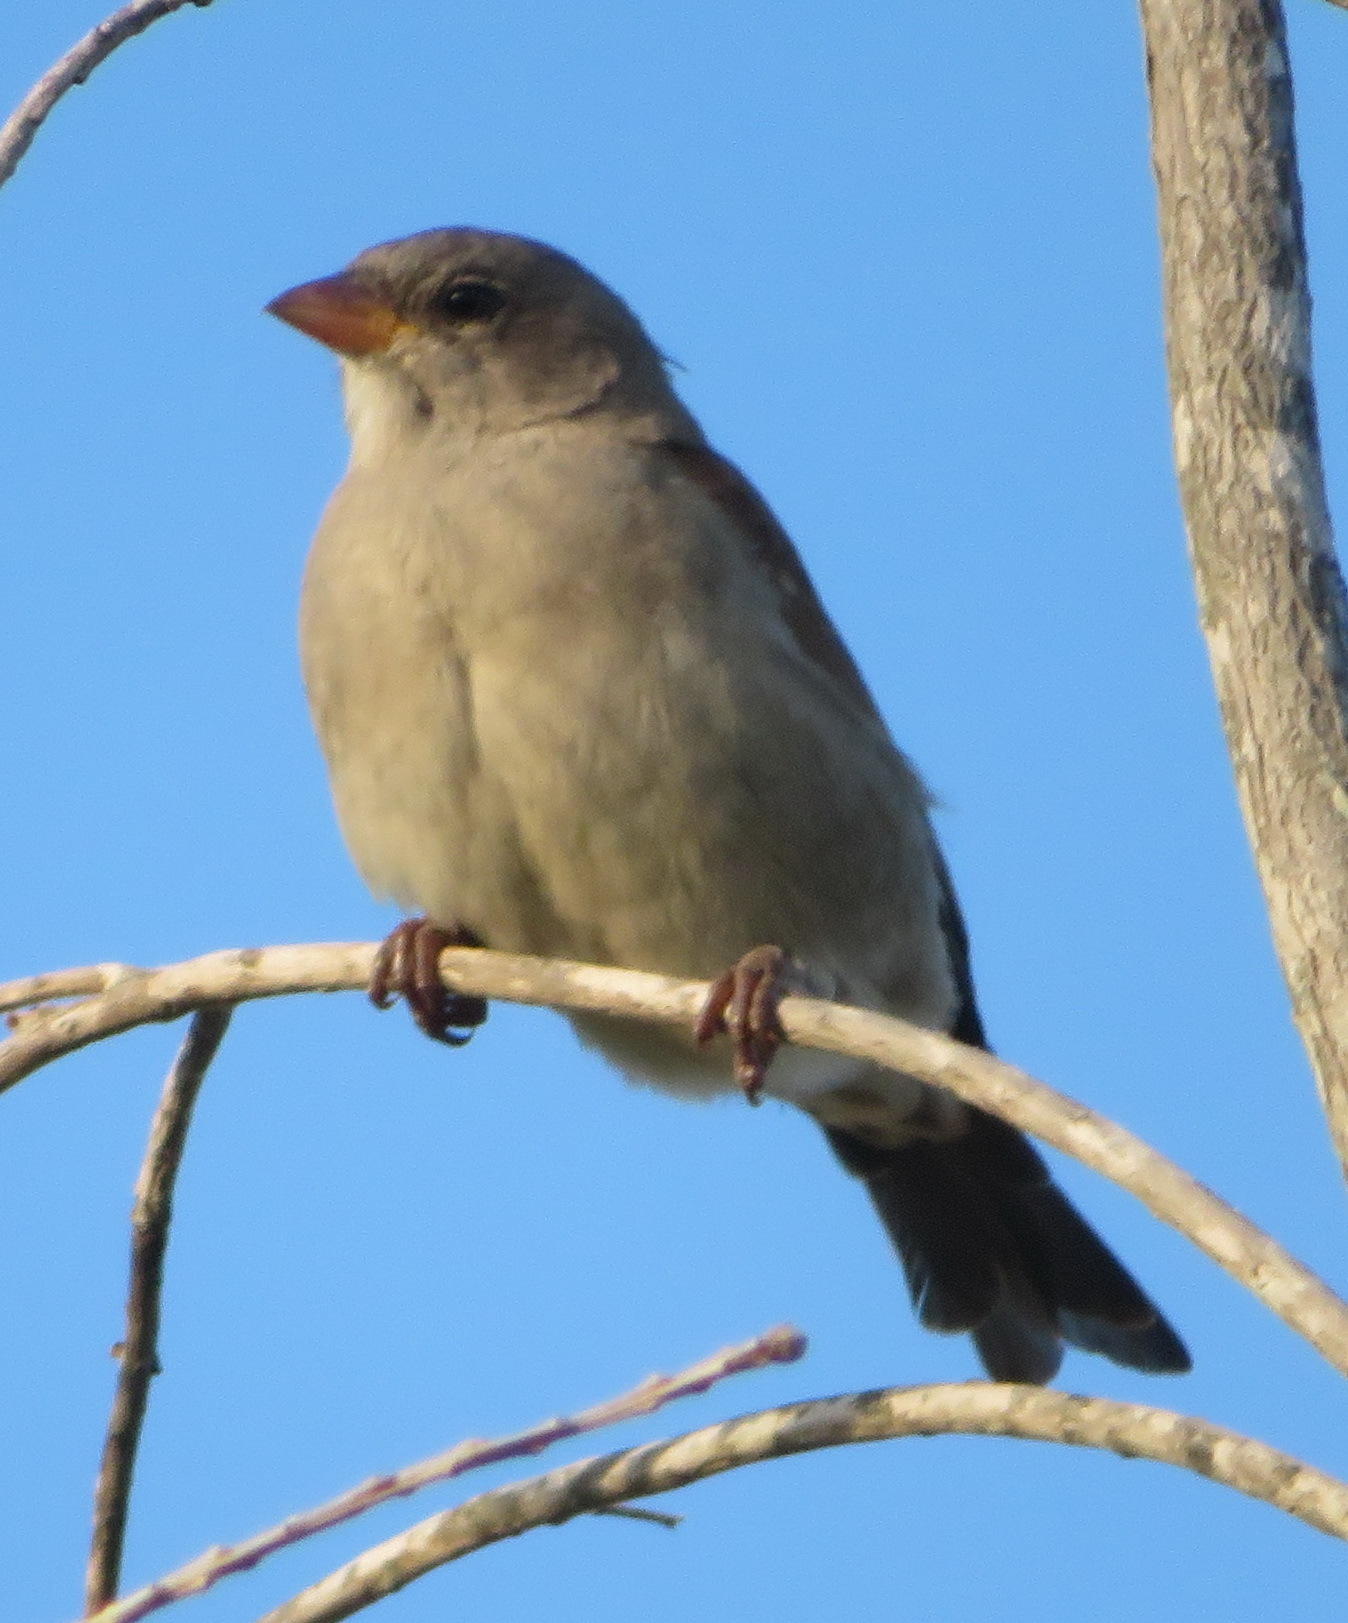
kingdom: Animalia
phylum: Chordata
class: Aves
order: Passeriformes
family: Passeridae
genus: Passer
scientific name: Passer diffusus
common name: Southern grey-headed sparrow
